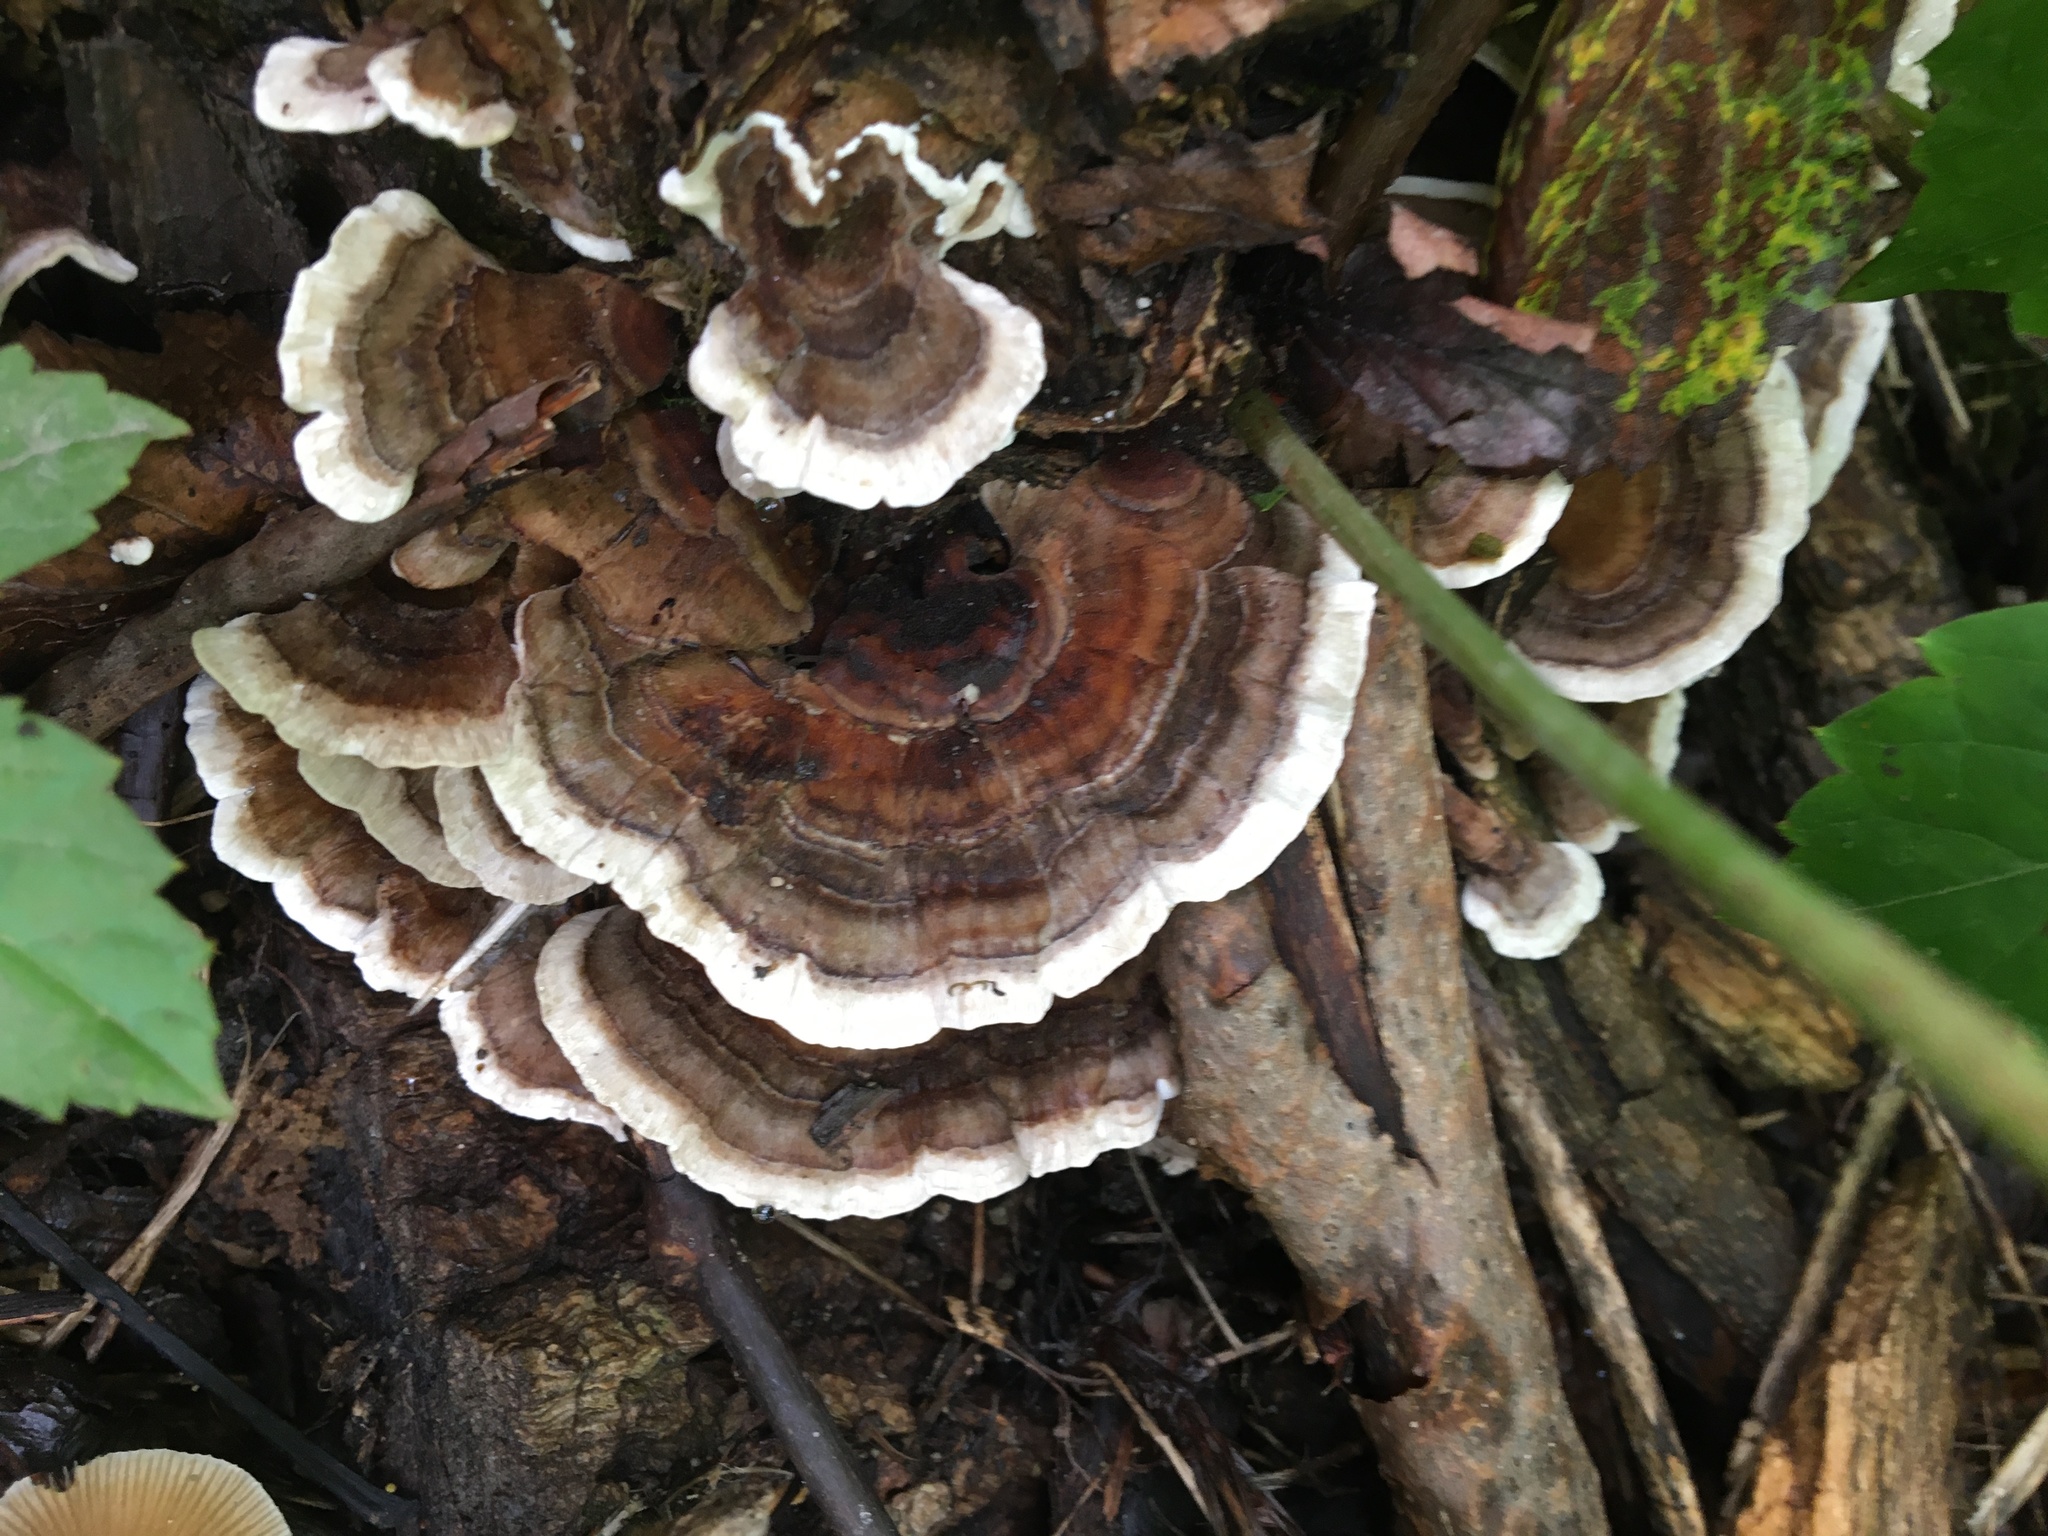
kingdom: Fungi
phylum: Basidiomycota
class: Agaricomycetes
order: Polyporales
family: Polyporaceae
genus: Trametes
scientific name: Trametes versicolor
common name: Turkeytail
